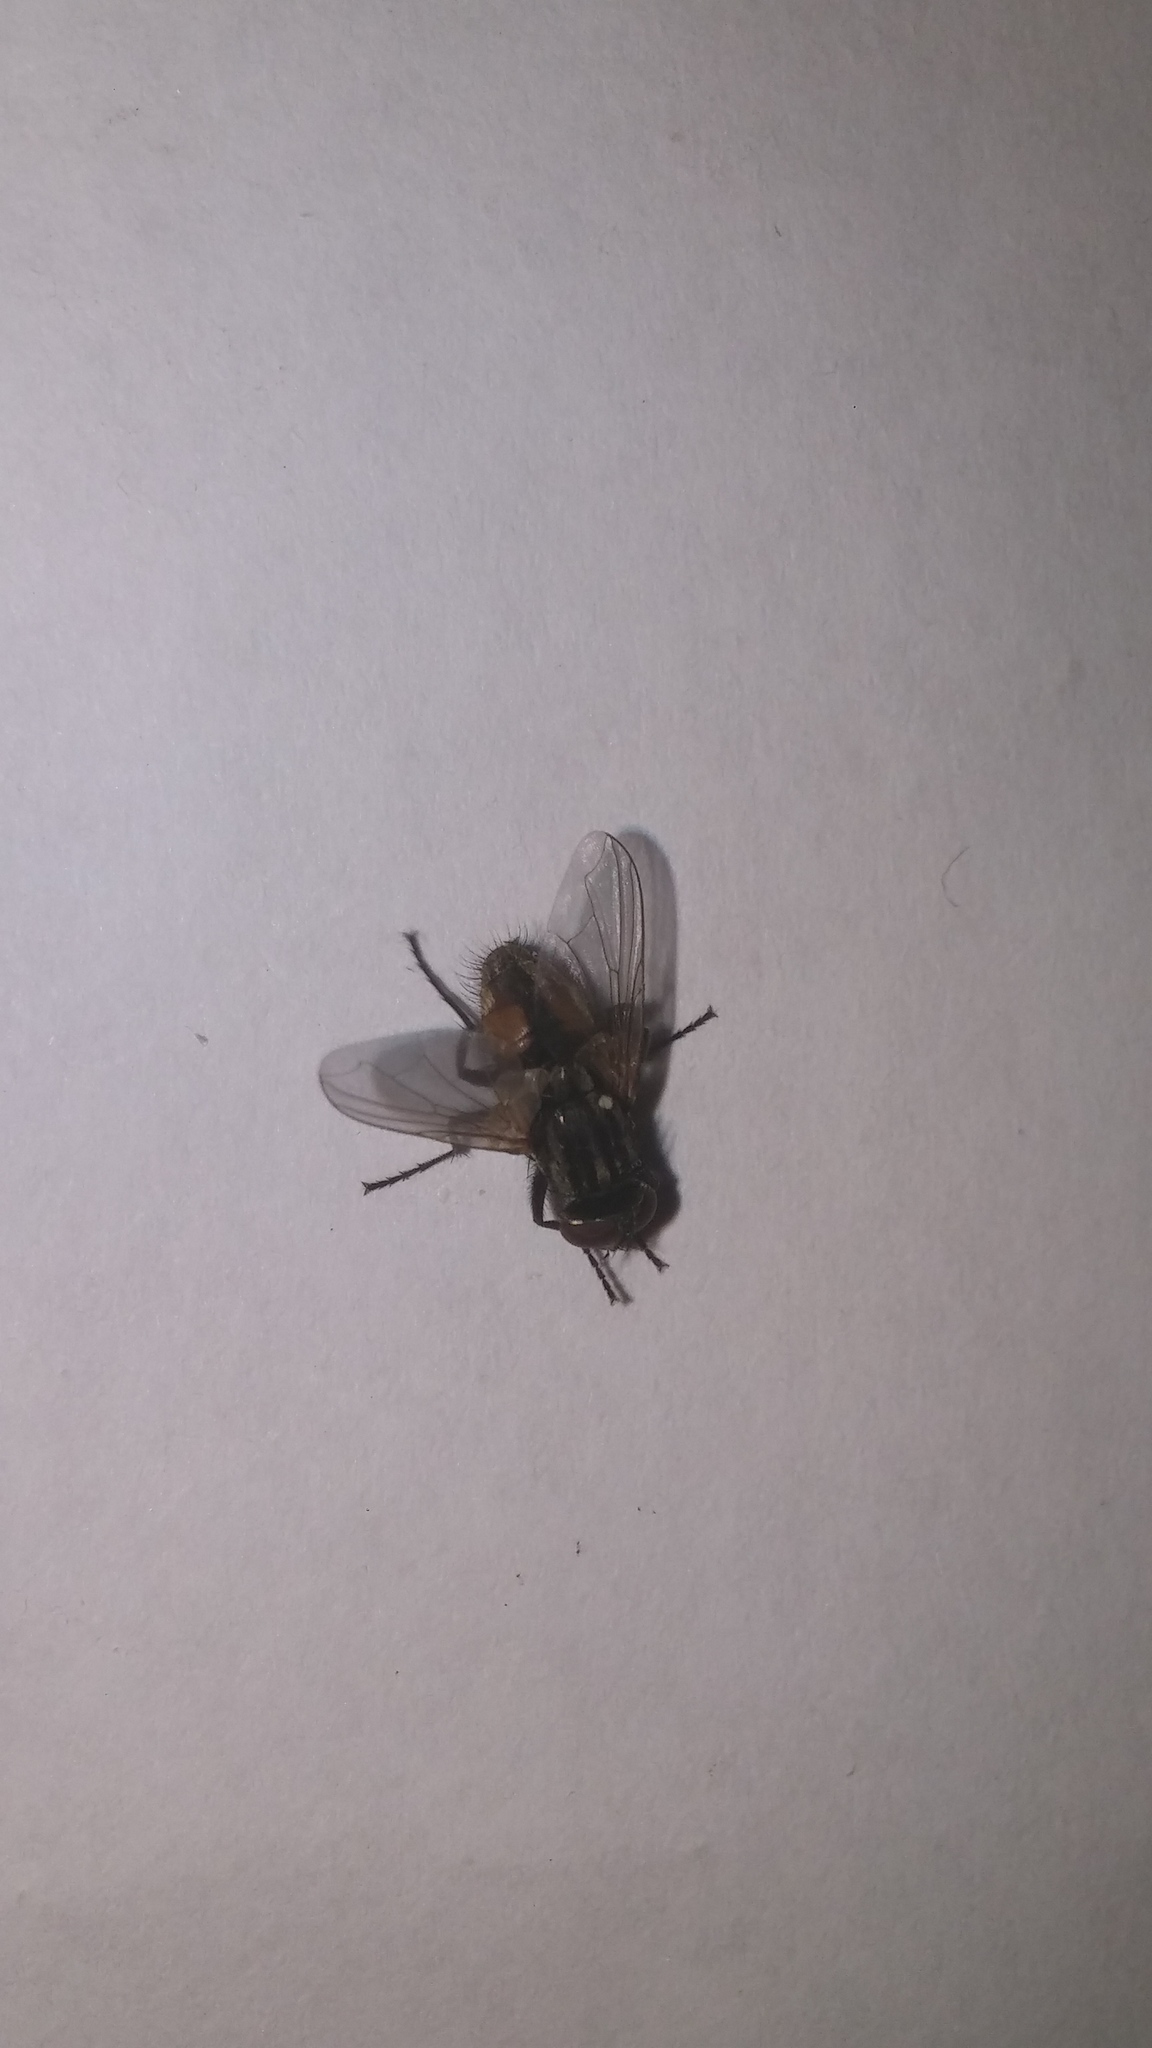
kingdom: Animalia
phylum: Arthropoda
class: Insecta
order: Diptera
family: Muscidae
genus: Musca
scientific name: Musca domestica
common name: House fly
